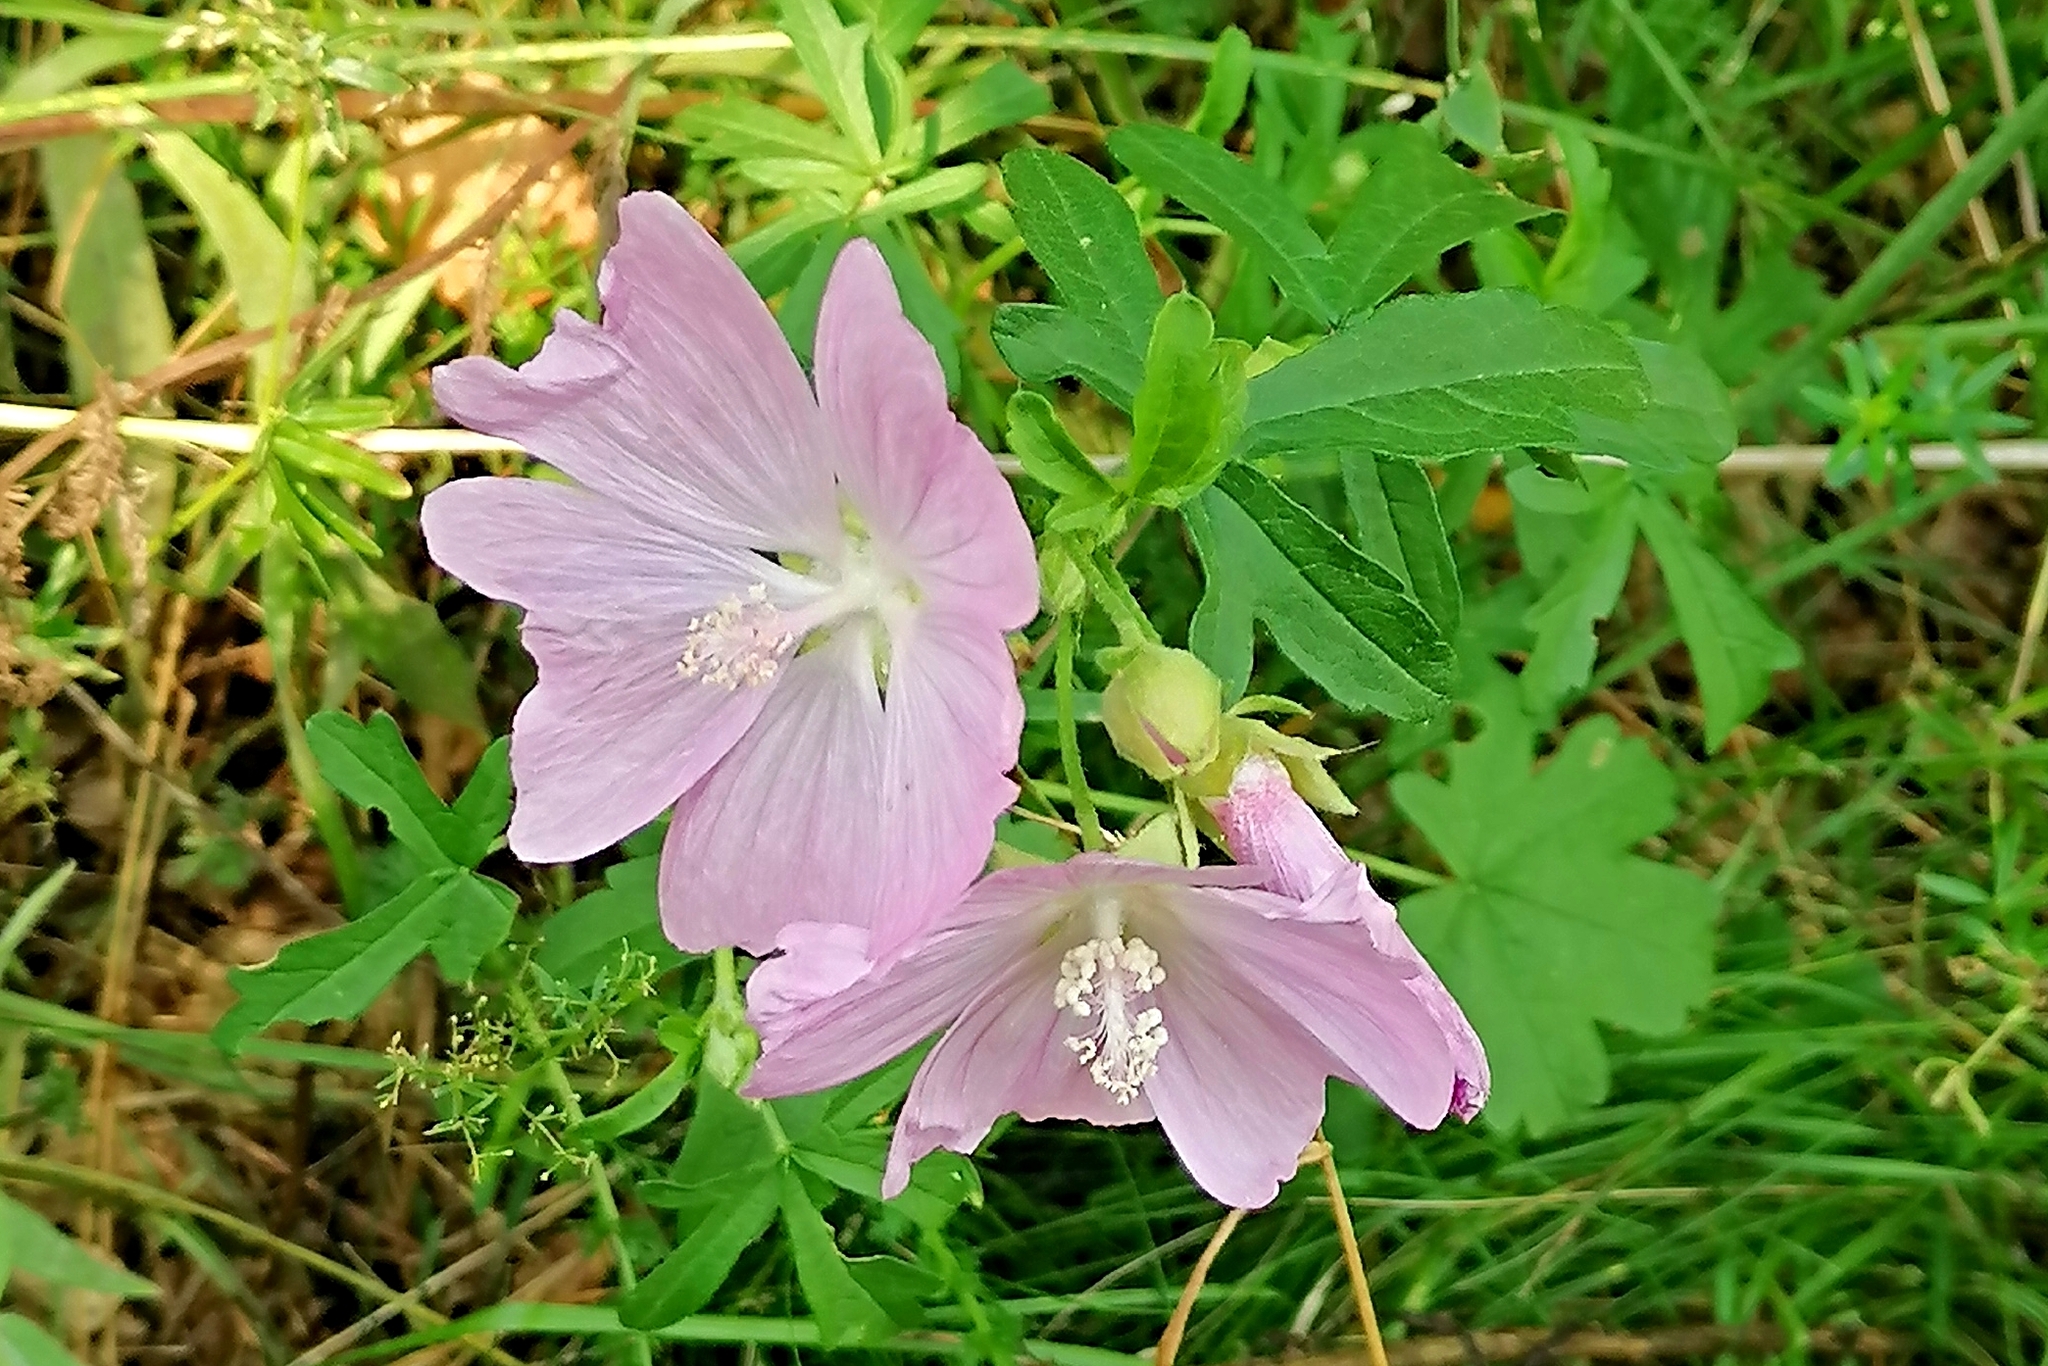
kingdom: Plantae
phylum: Tracheophyta
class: Magnoliopsida
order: Malvales
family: Malvaceae
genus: Malva
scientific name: Malva alcea
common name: Greater musk-mallow
